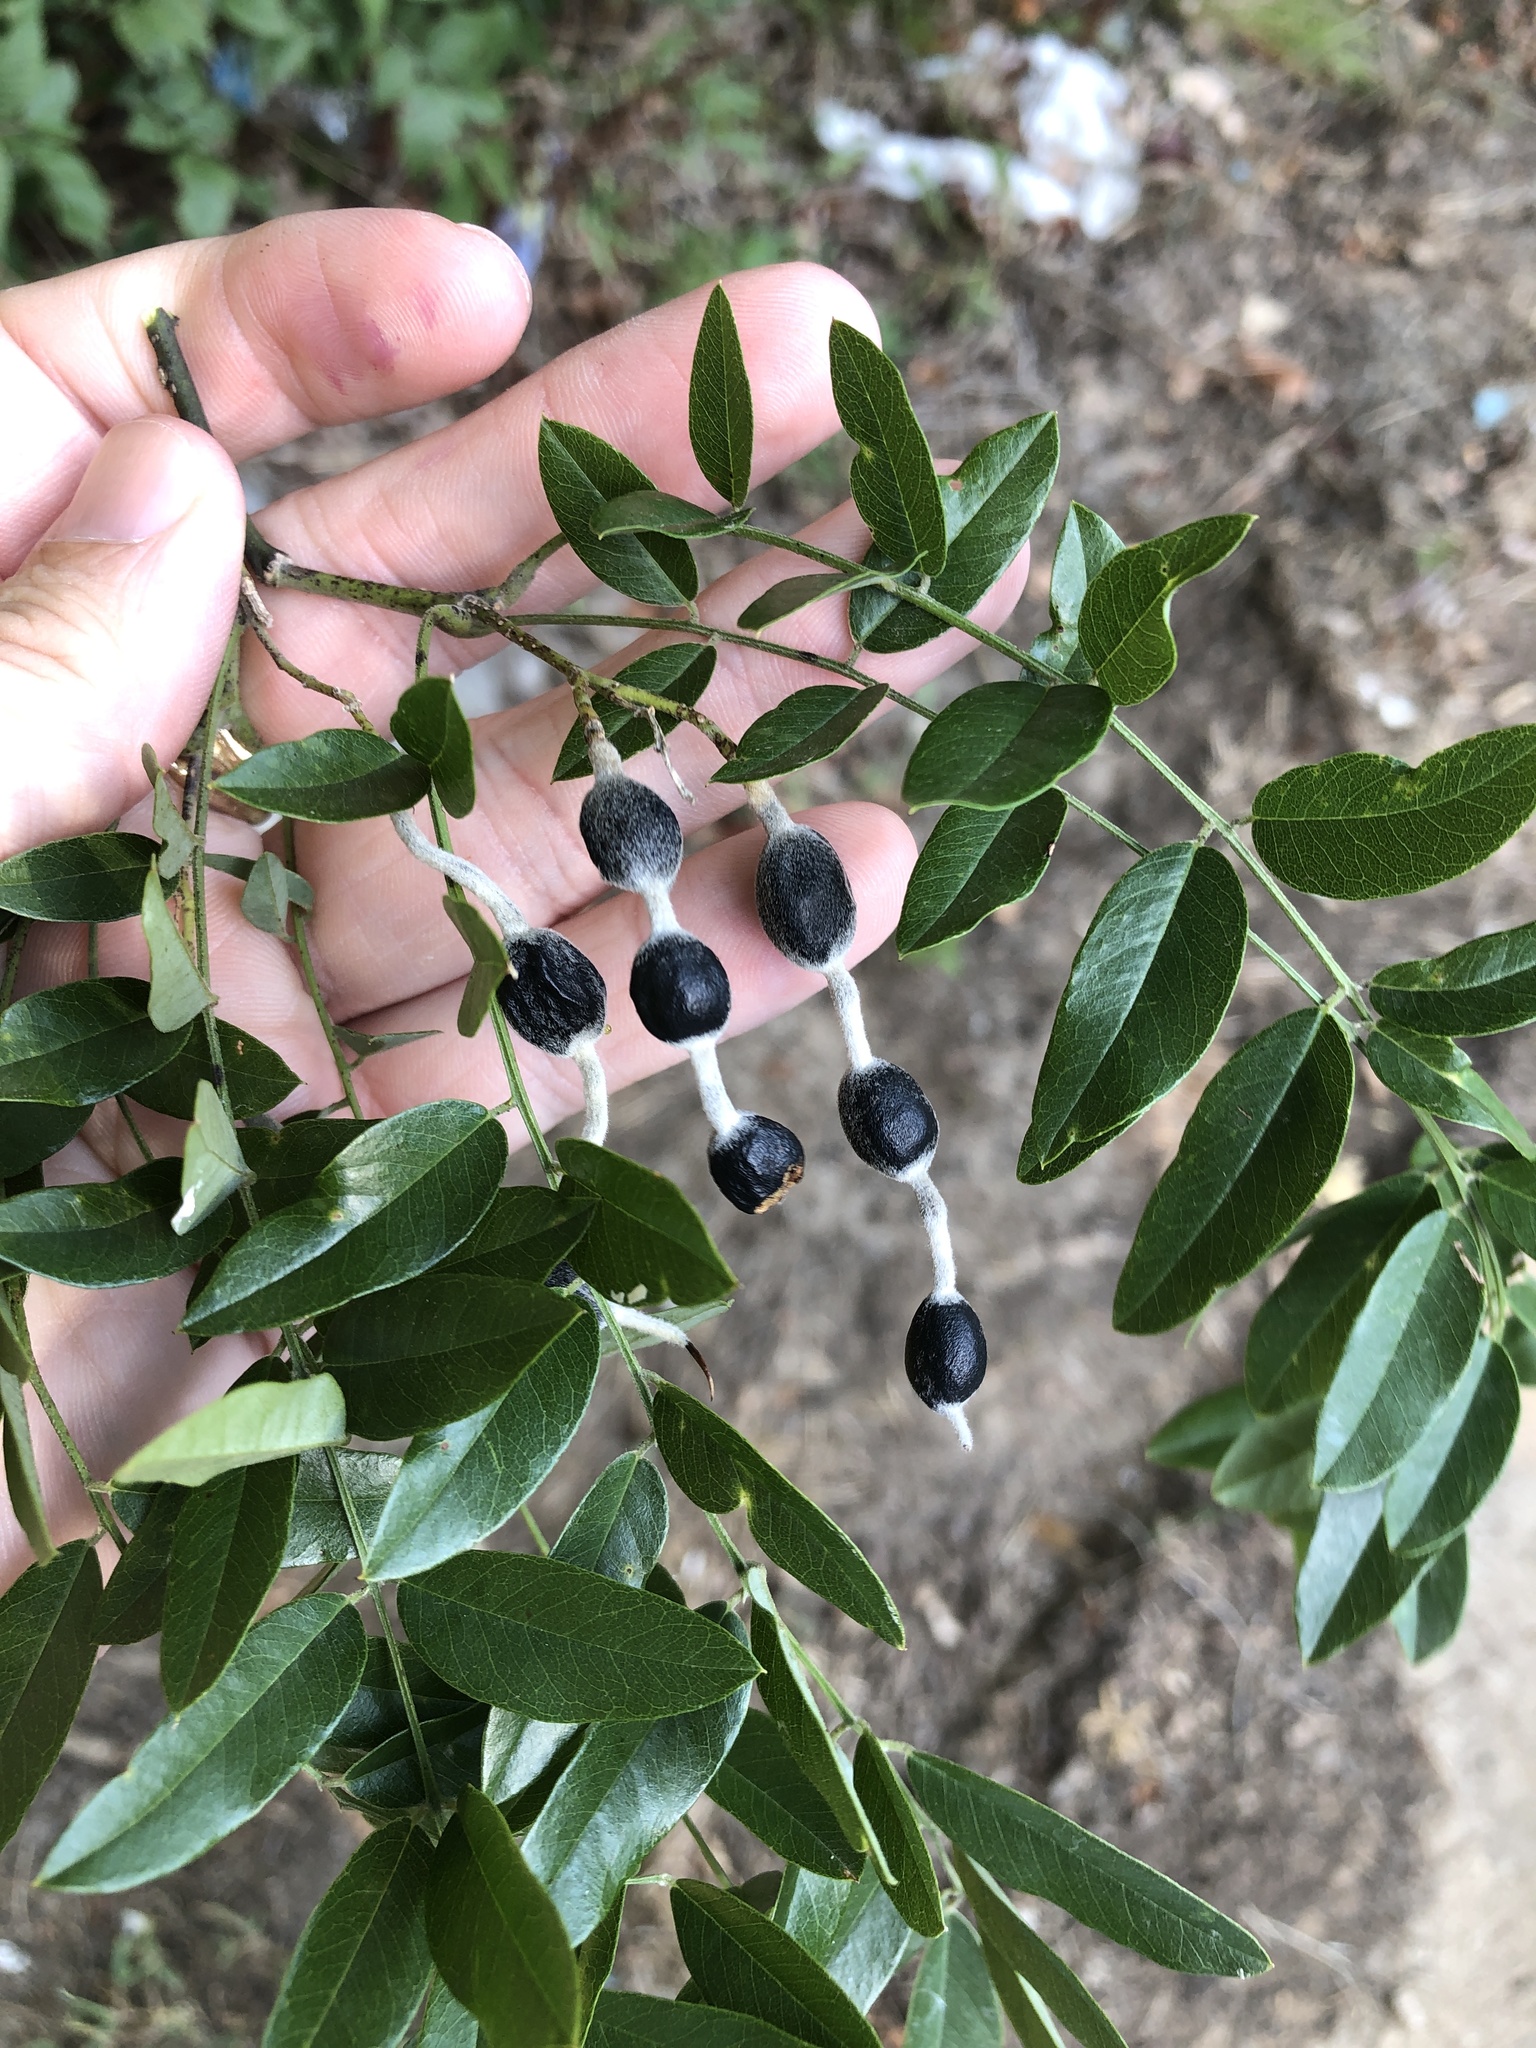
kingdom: Plantae
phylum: Tracheophyta
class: Magnoliopsida
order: Fabales
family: Fabaceae
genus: Styphnolobium
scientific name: Styphnolobium affine
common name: Texas sophora
